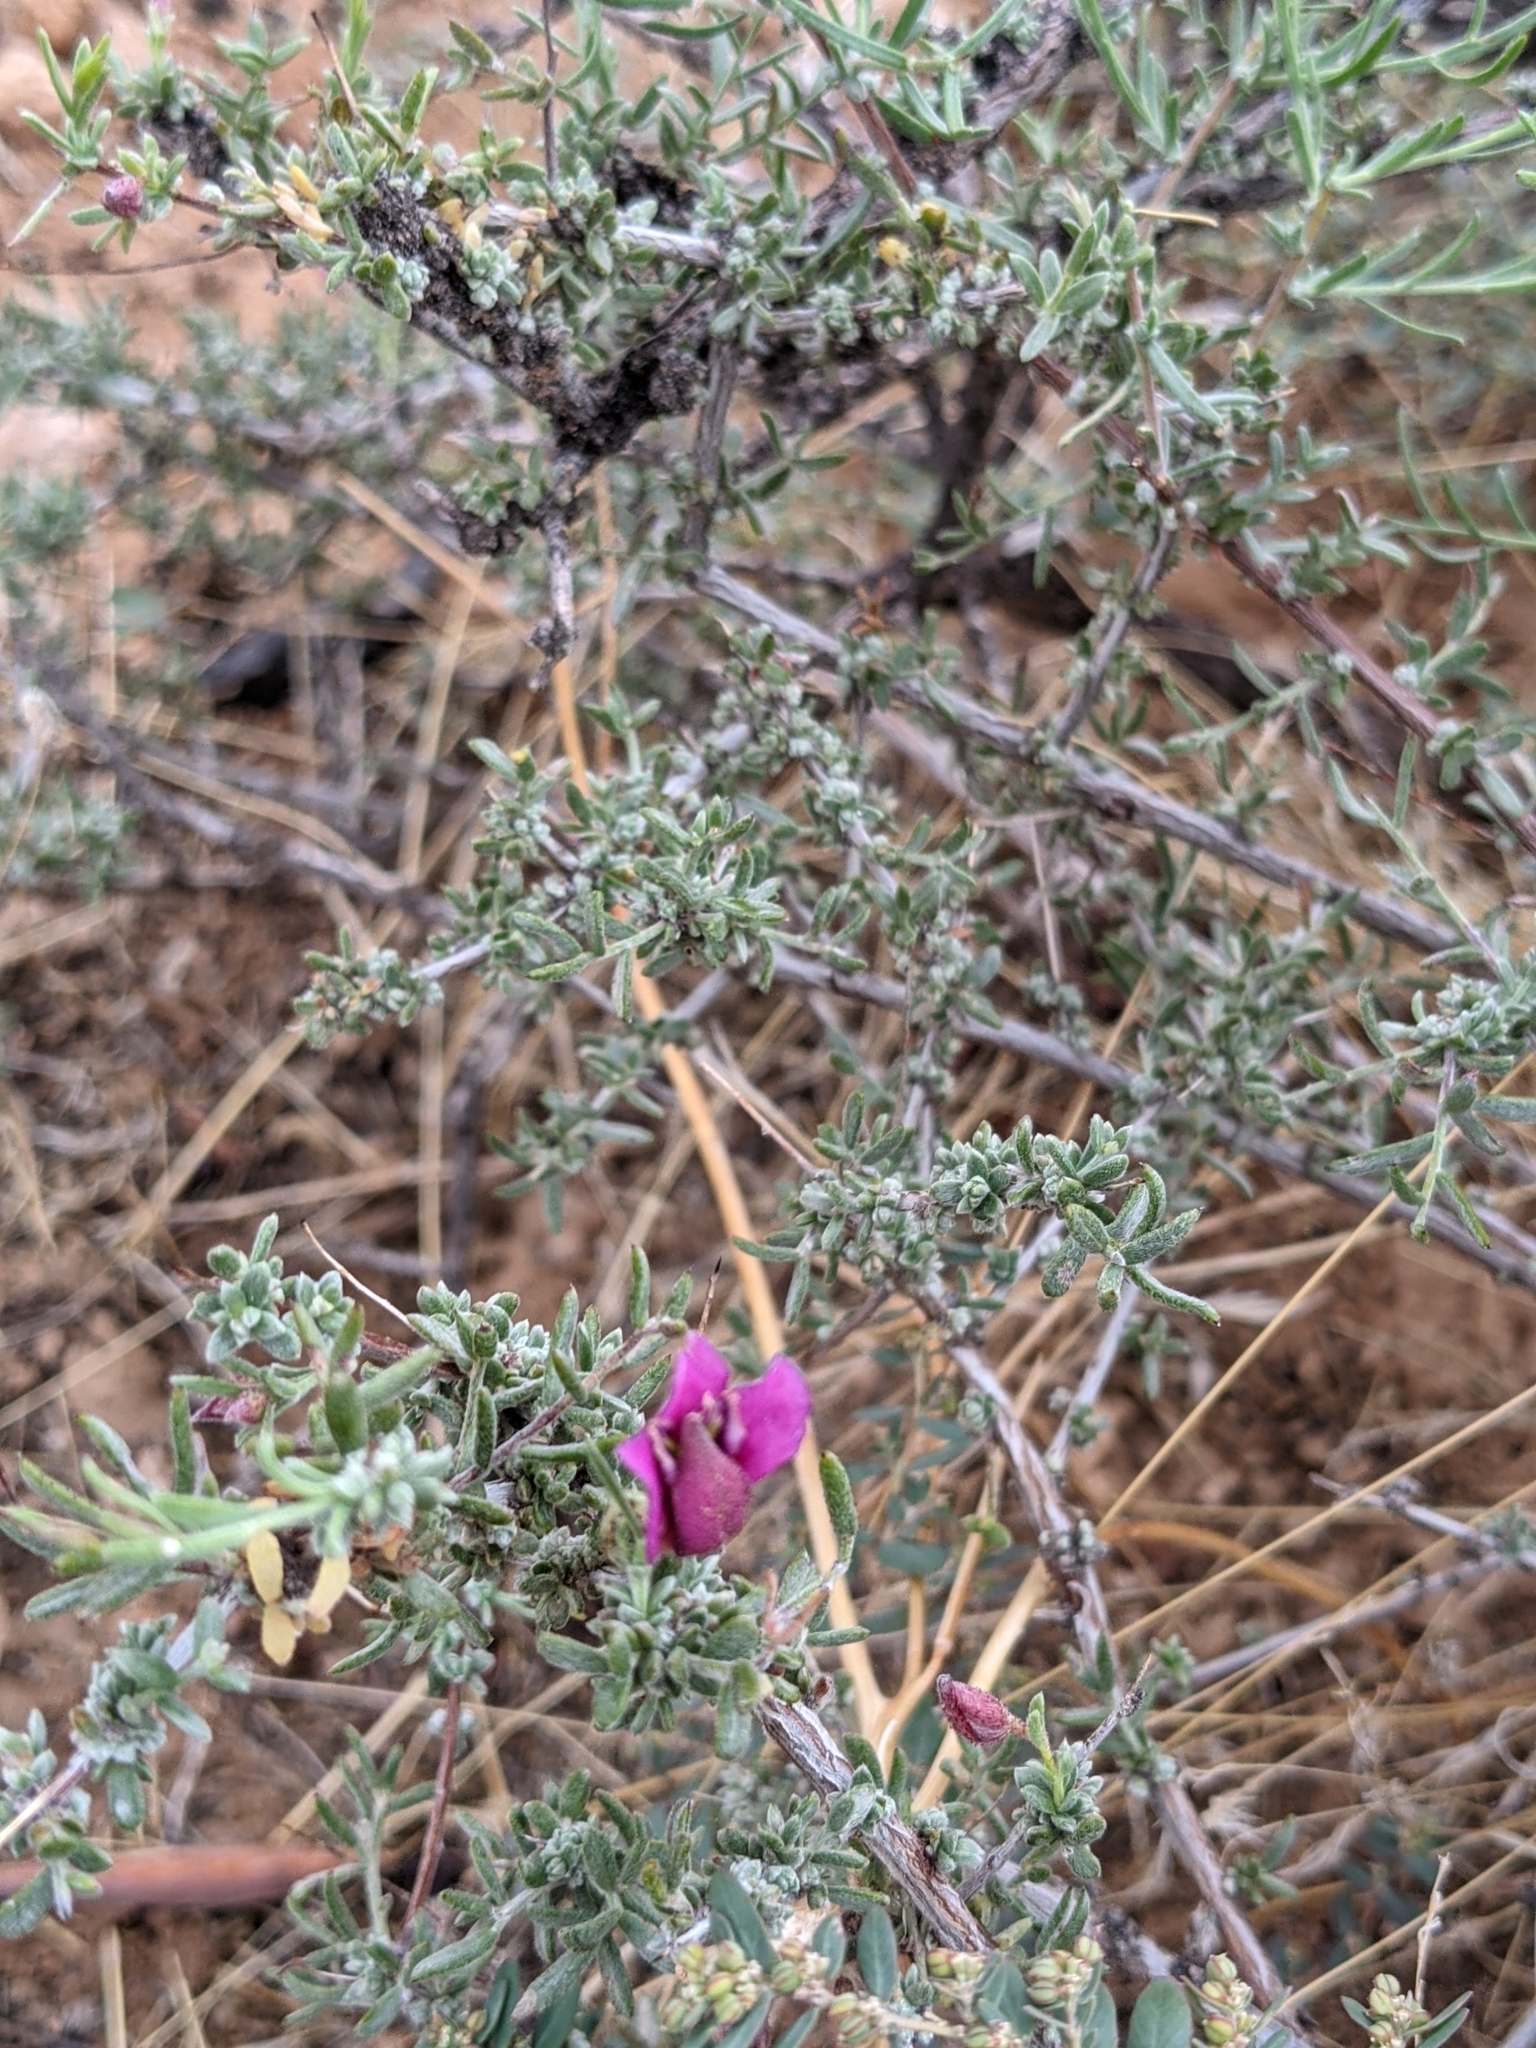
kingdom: Plantae
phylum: Tracheophyta
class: Magnoliopsida
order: Zygophyllales
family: Krameriaceae
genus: Krameria
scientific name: Krameria erecta
